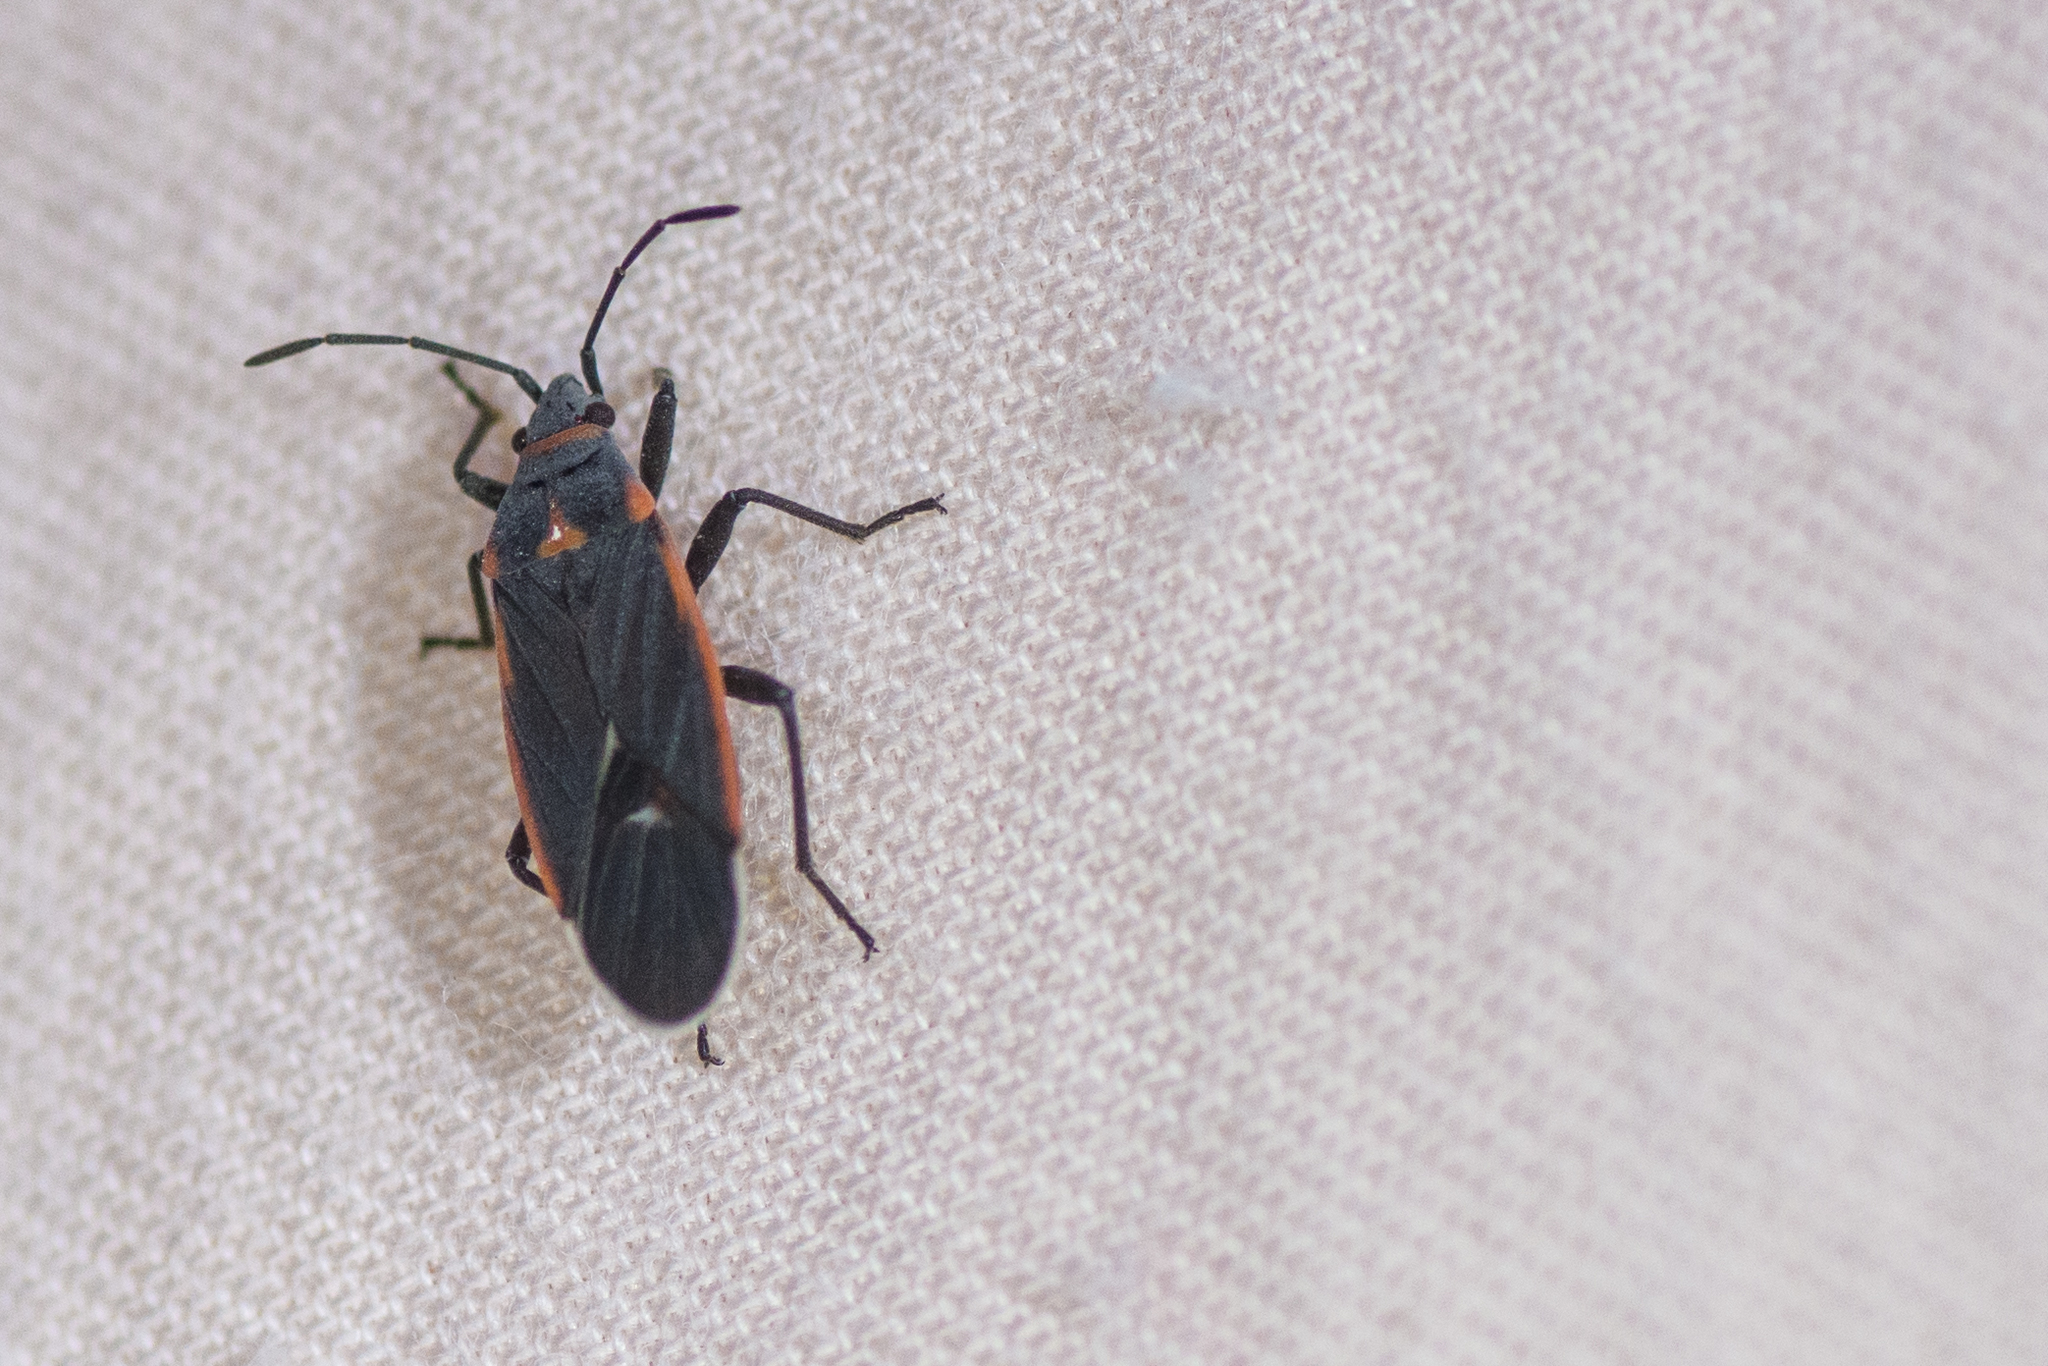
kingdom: Animalia
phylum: Arthropoda
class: Insecta
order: Hemiptera
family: Lygaeidae
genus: Melacoryphus
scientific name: Melacoryphus lateralis
